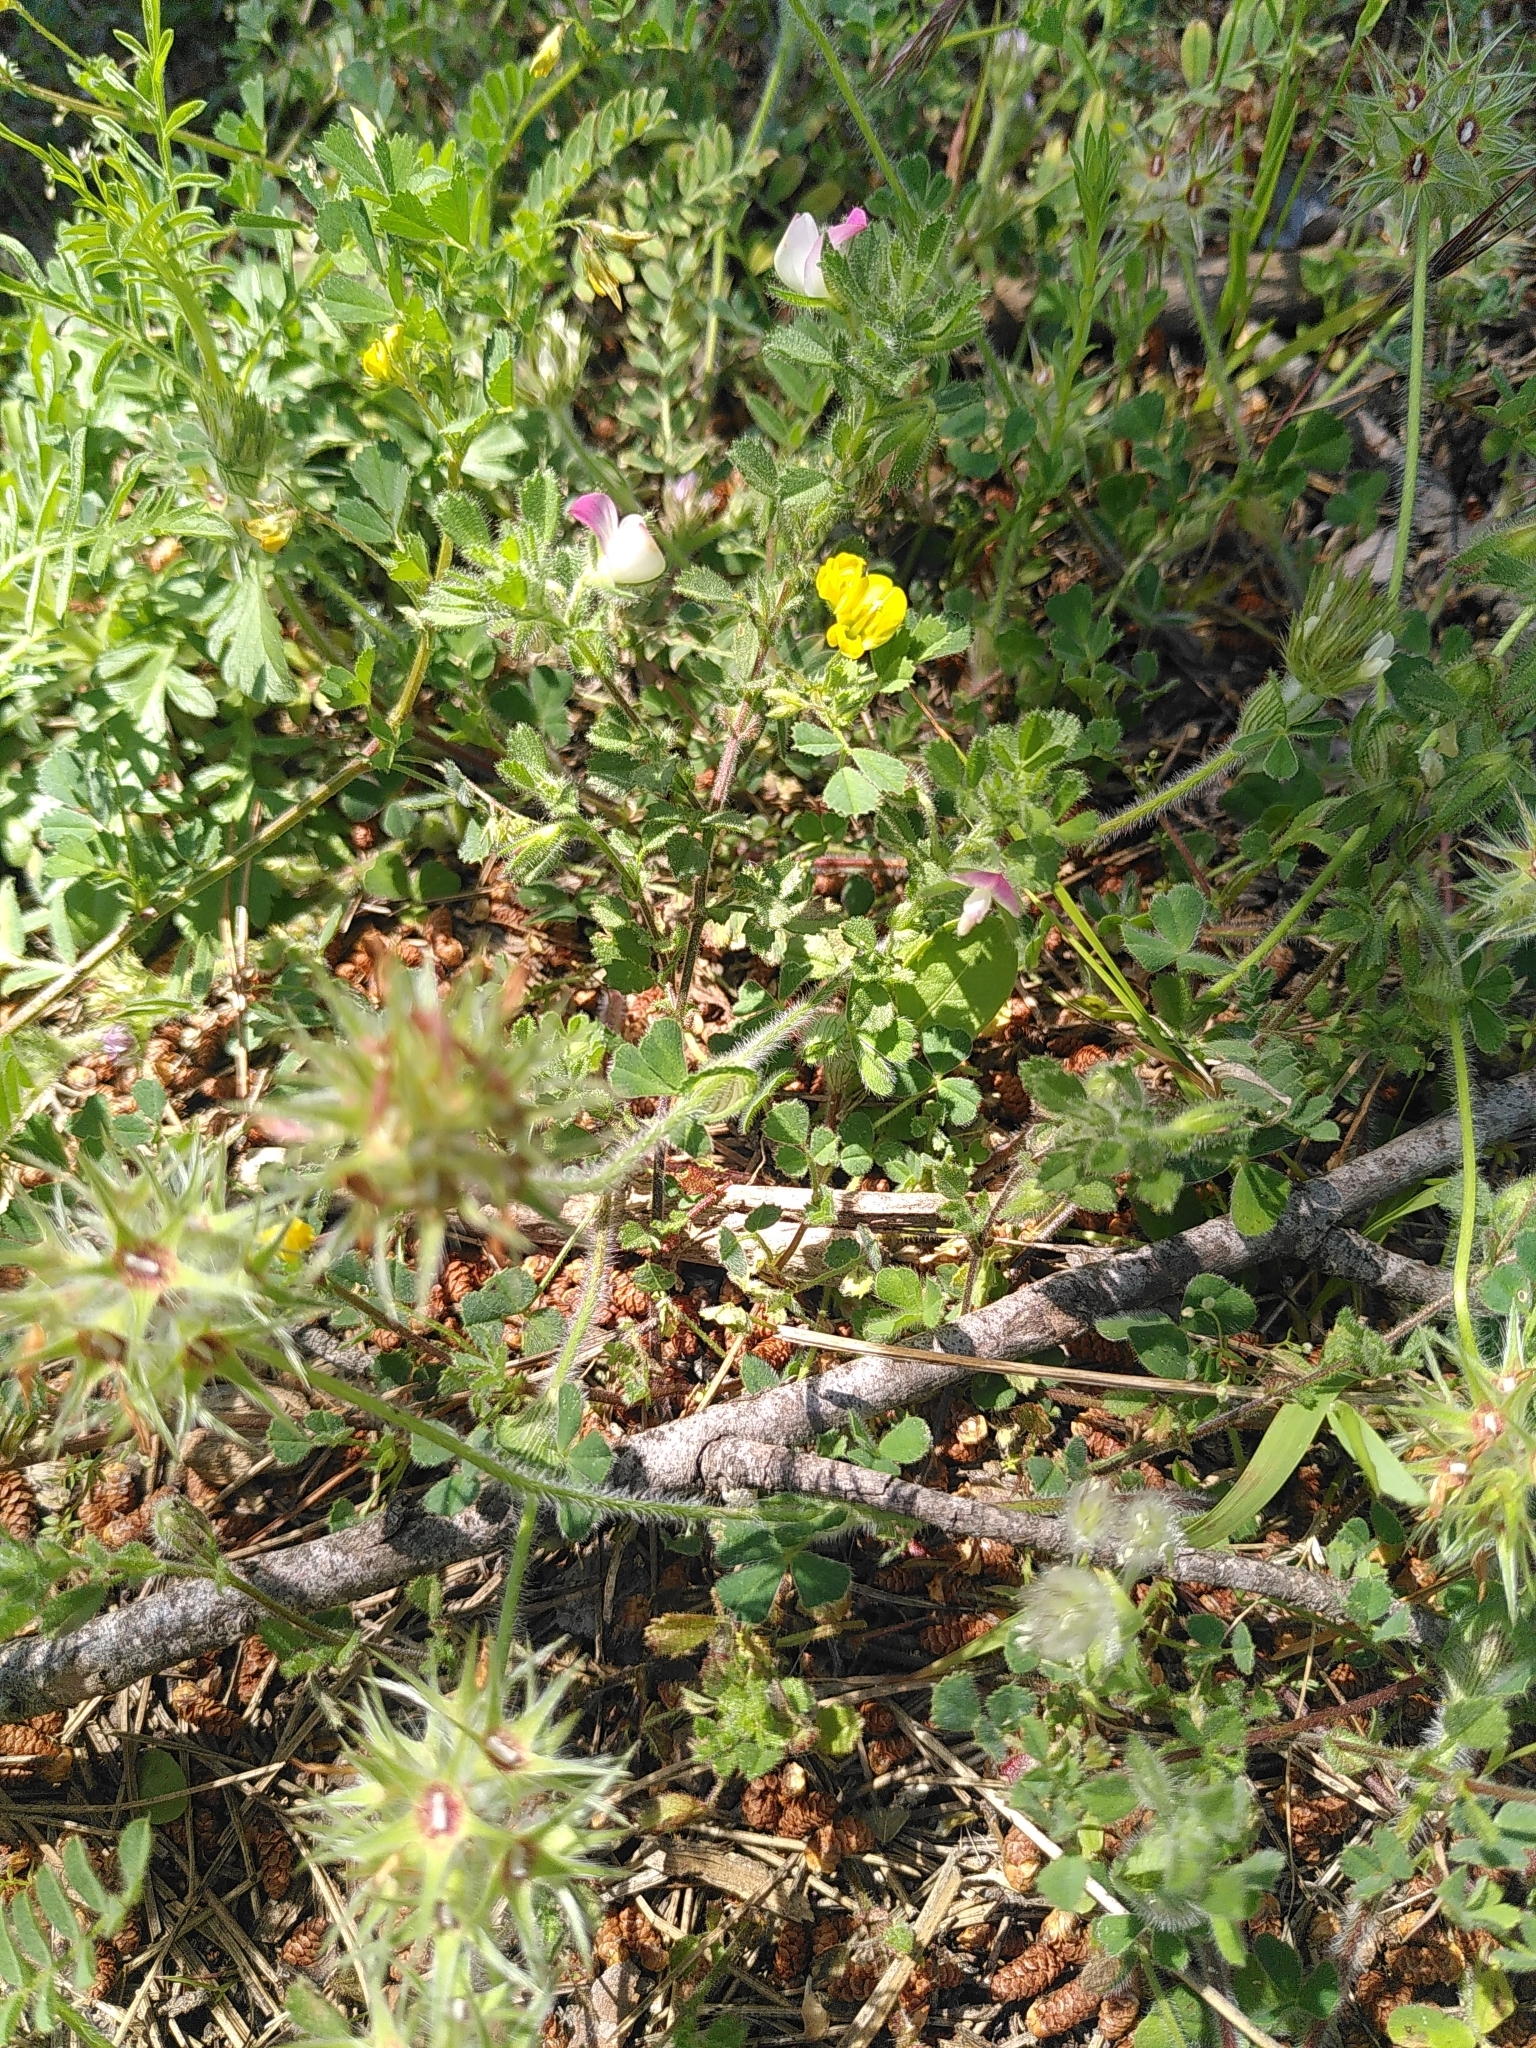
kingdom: Plantae
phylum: Tracheophyta
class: Magnoliopsida
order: Fabales
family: Fabaceae
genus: Ononis
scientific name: Ononis reclinata
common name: Small restharrow
